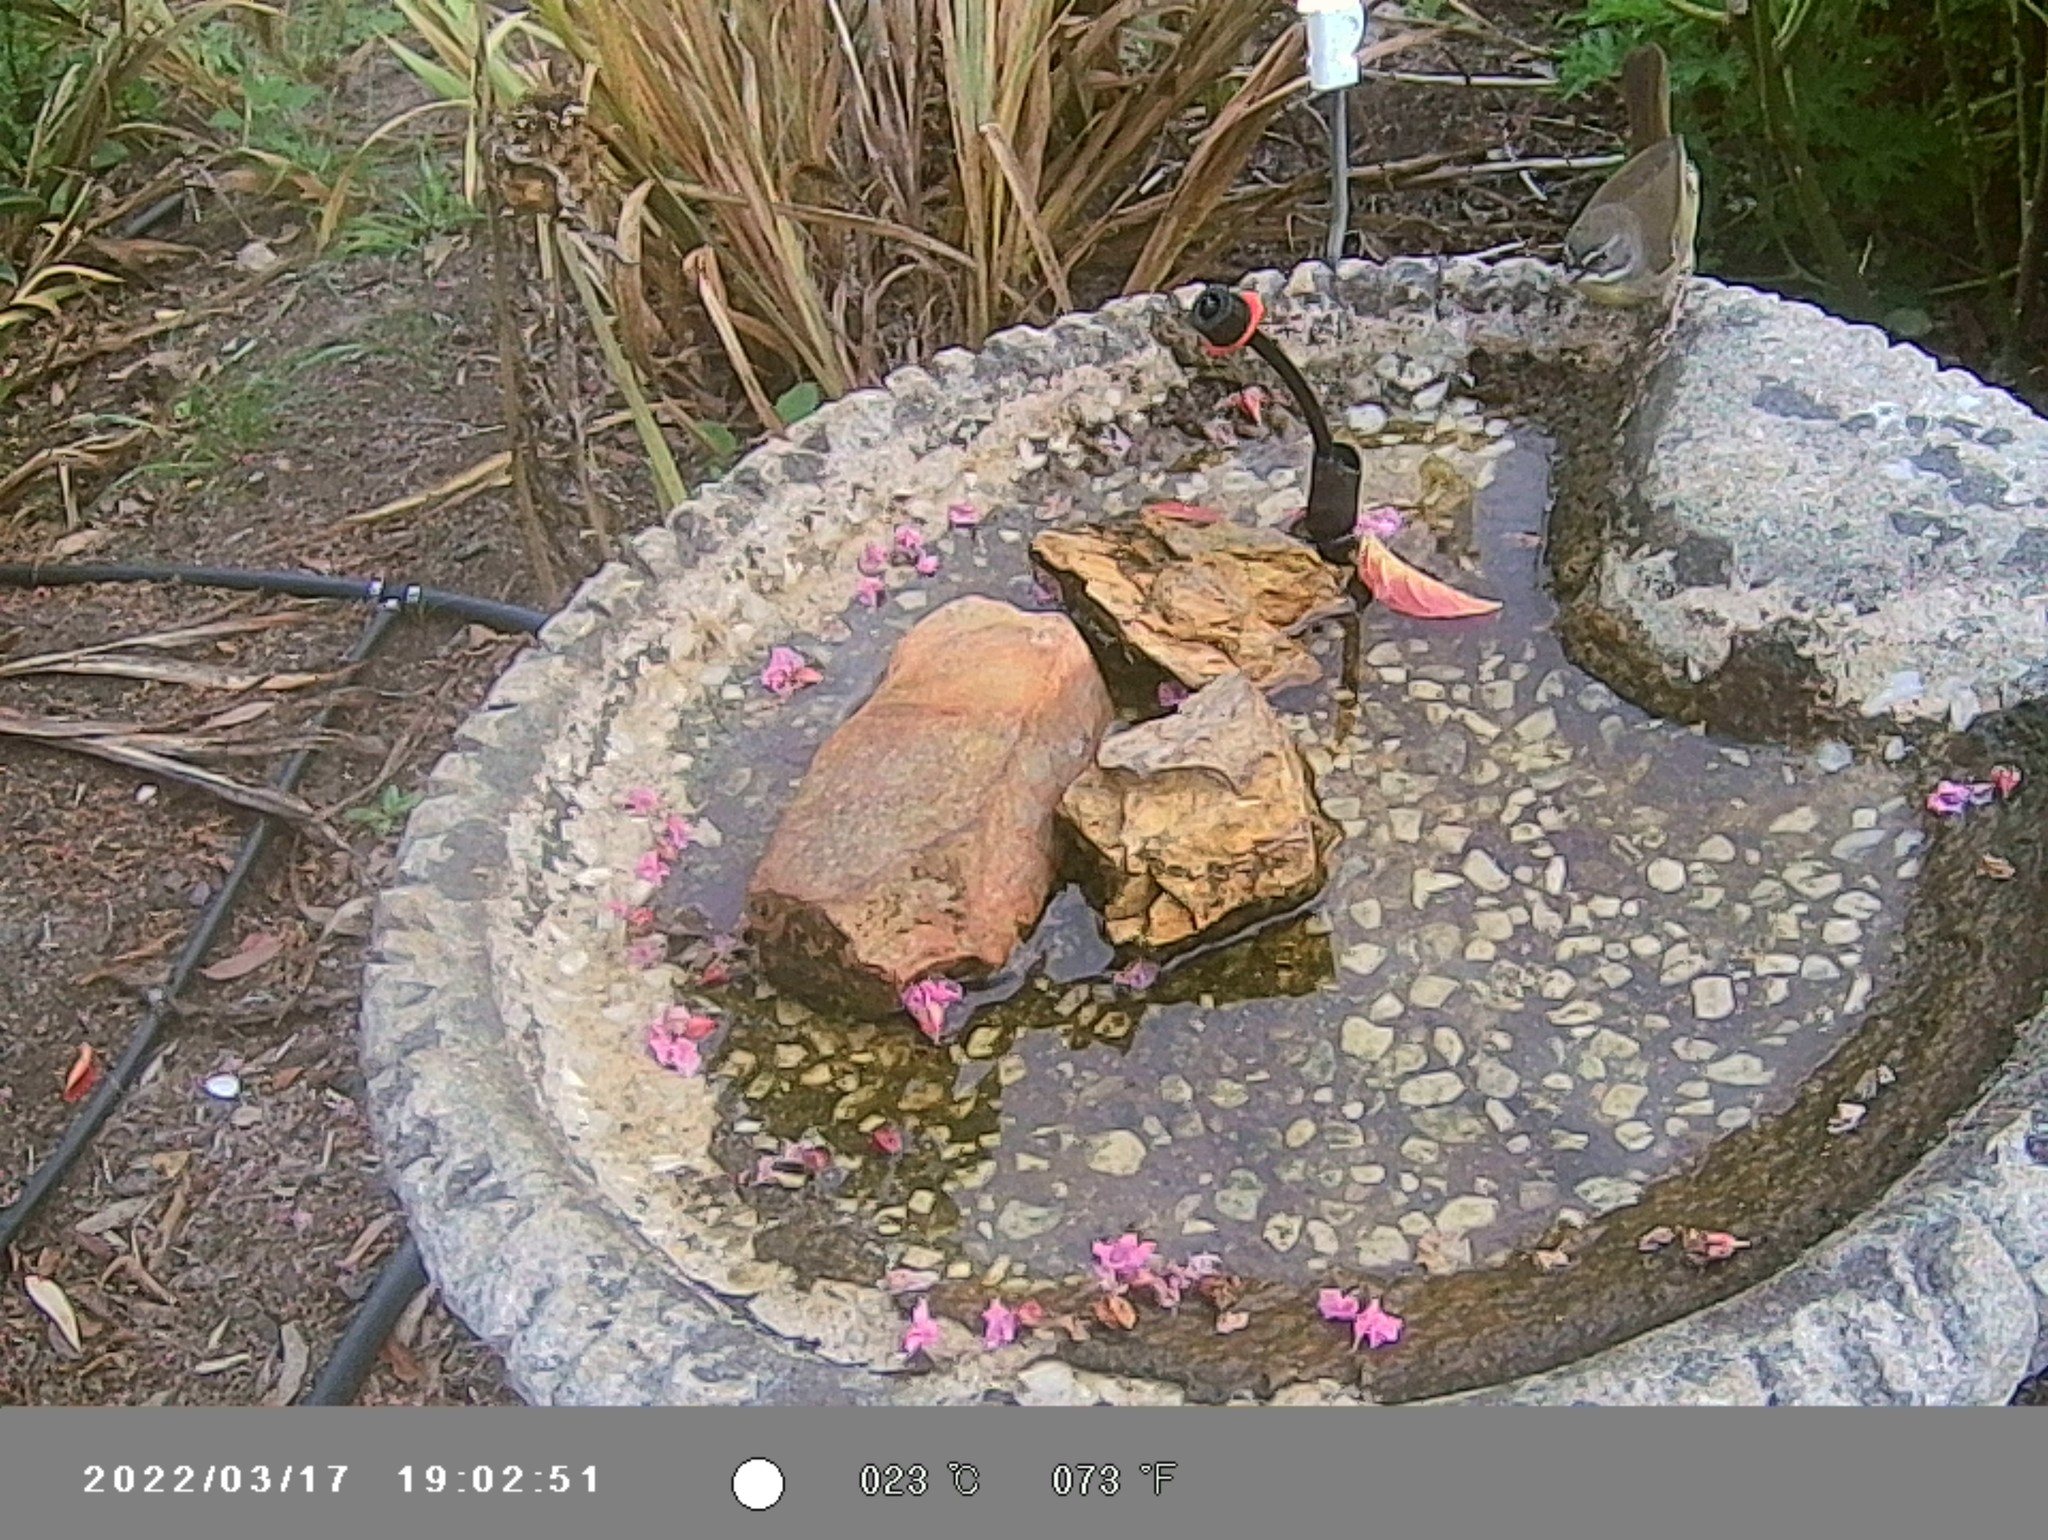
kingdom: Animalia
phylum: Chordata
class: Aves
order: Passeriformes
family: Acanthizidae
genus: Sericornis
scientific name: Sericornis frontalis
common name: White-browed scrubwren
